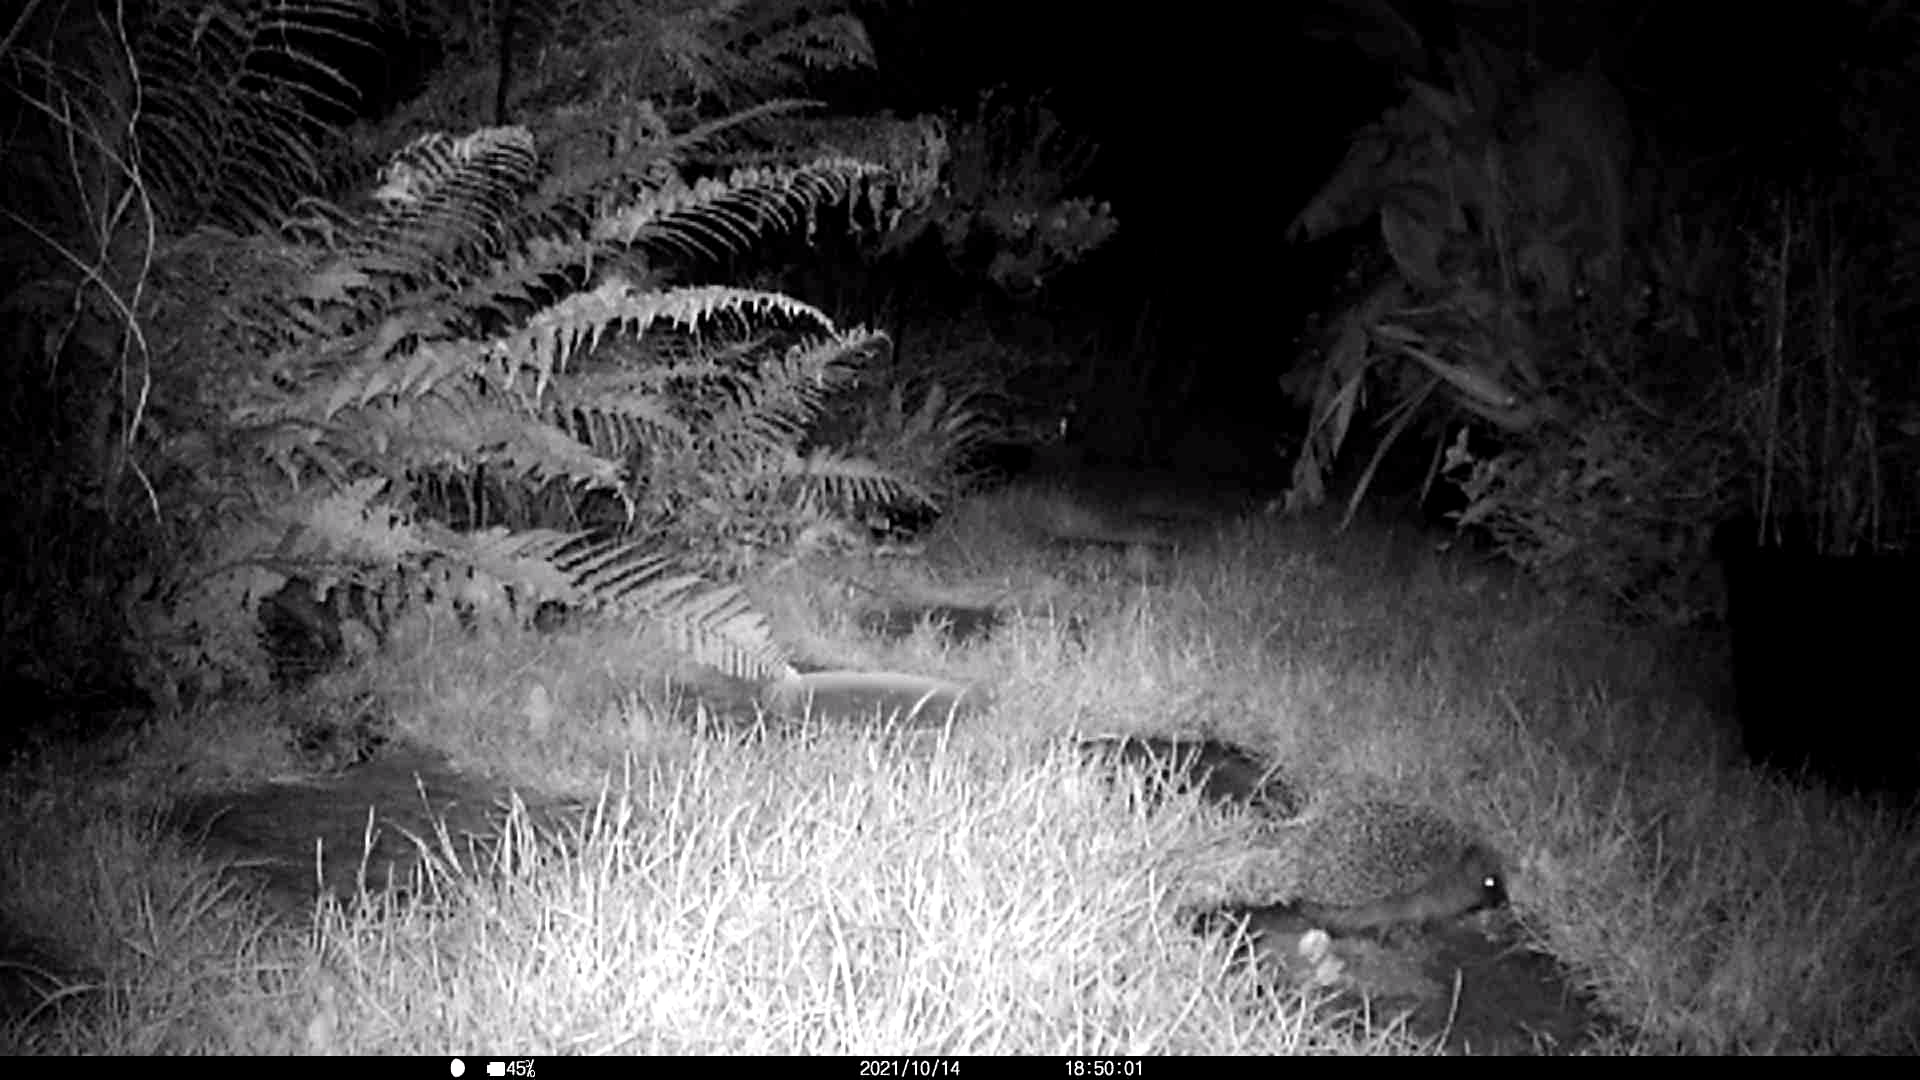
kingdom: Animalia
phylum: Chordata
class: Mammalia
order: Erinaceomorpha
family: Erinaceidae
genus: Erinaceus
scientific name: Erinaceus europaeus
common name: West european hedgehog
